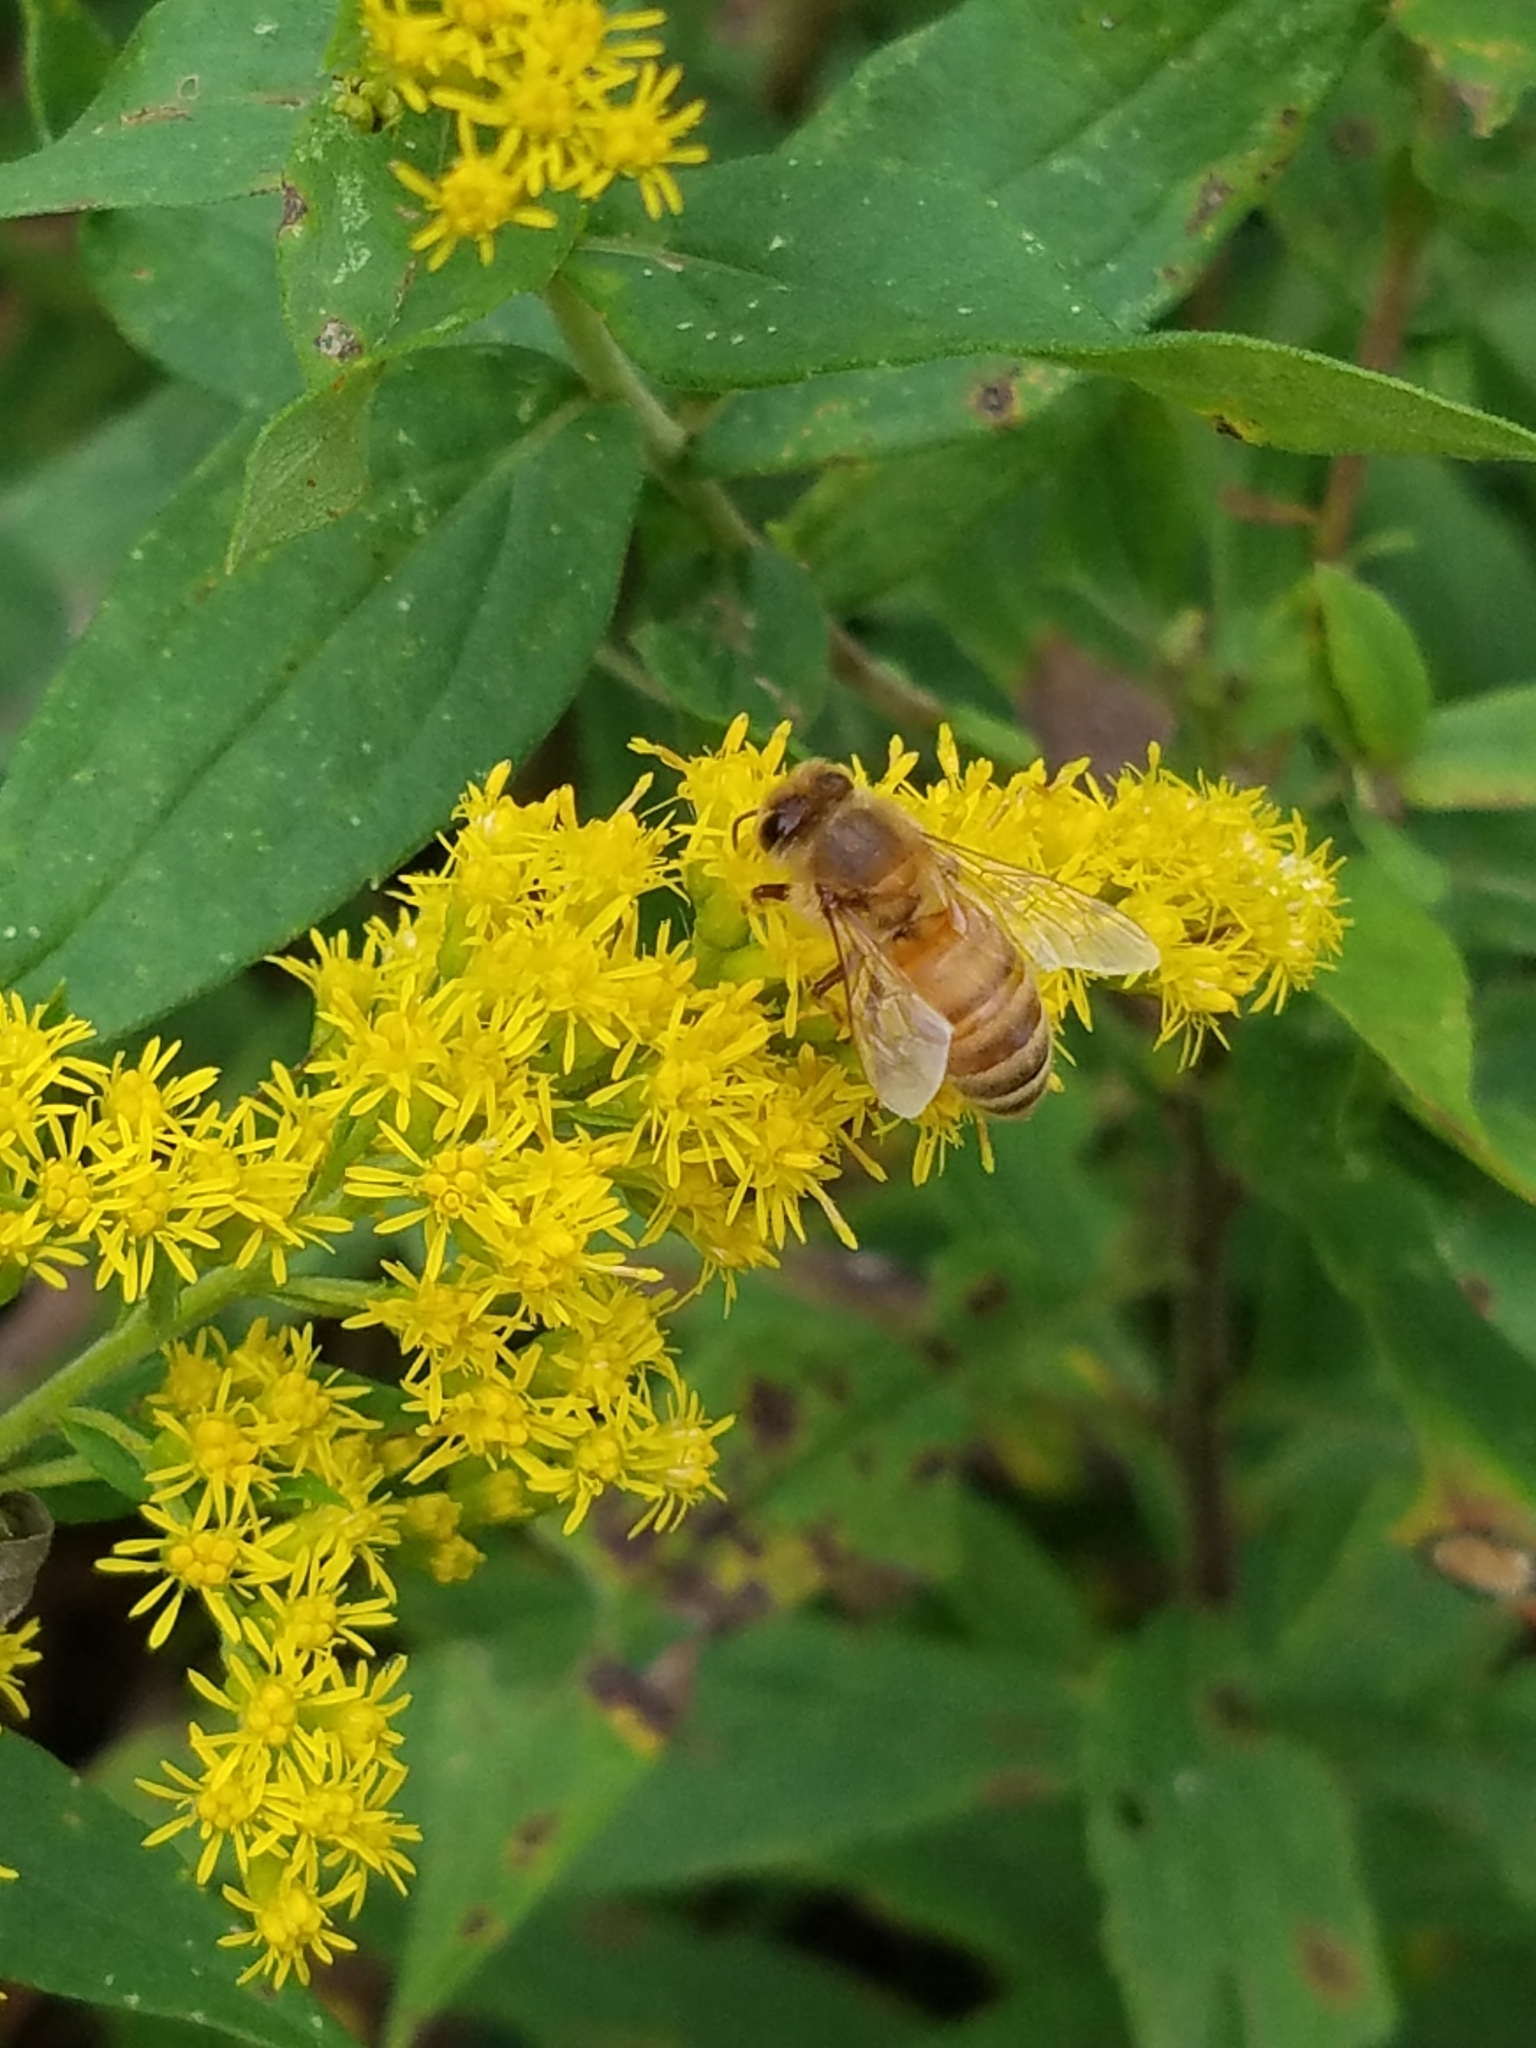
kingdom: Animalia
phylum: Arthropoda
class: Insecta
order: Hymenoptera
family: Apidae
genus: Apis
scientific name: Apis mellifera
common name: Honey bee
